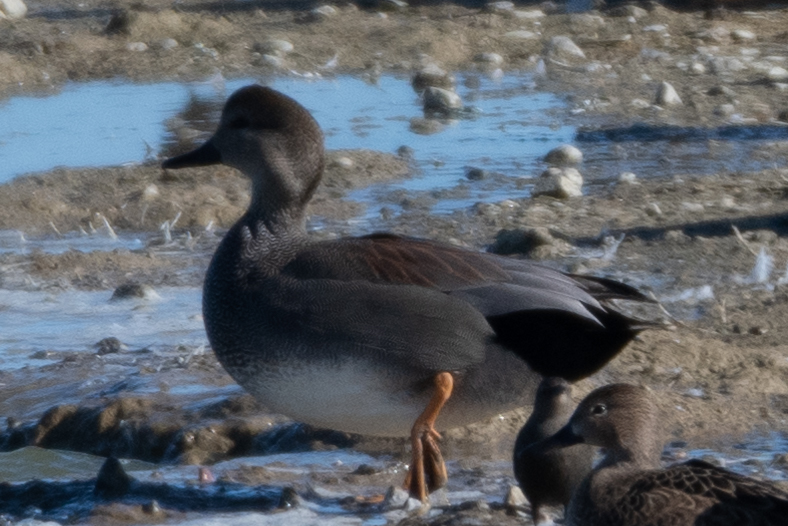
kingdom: Animalia
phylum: Chordata
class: Aves
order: Anseriformes
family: Anatidae
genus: Mareca
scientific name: Mareca strepera
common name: Gadwall
